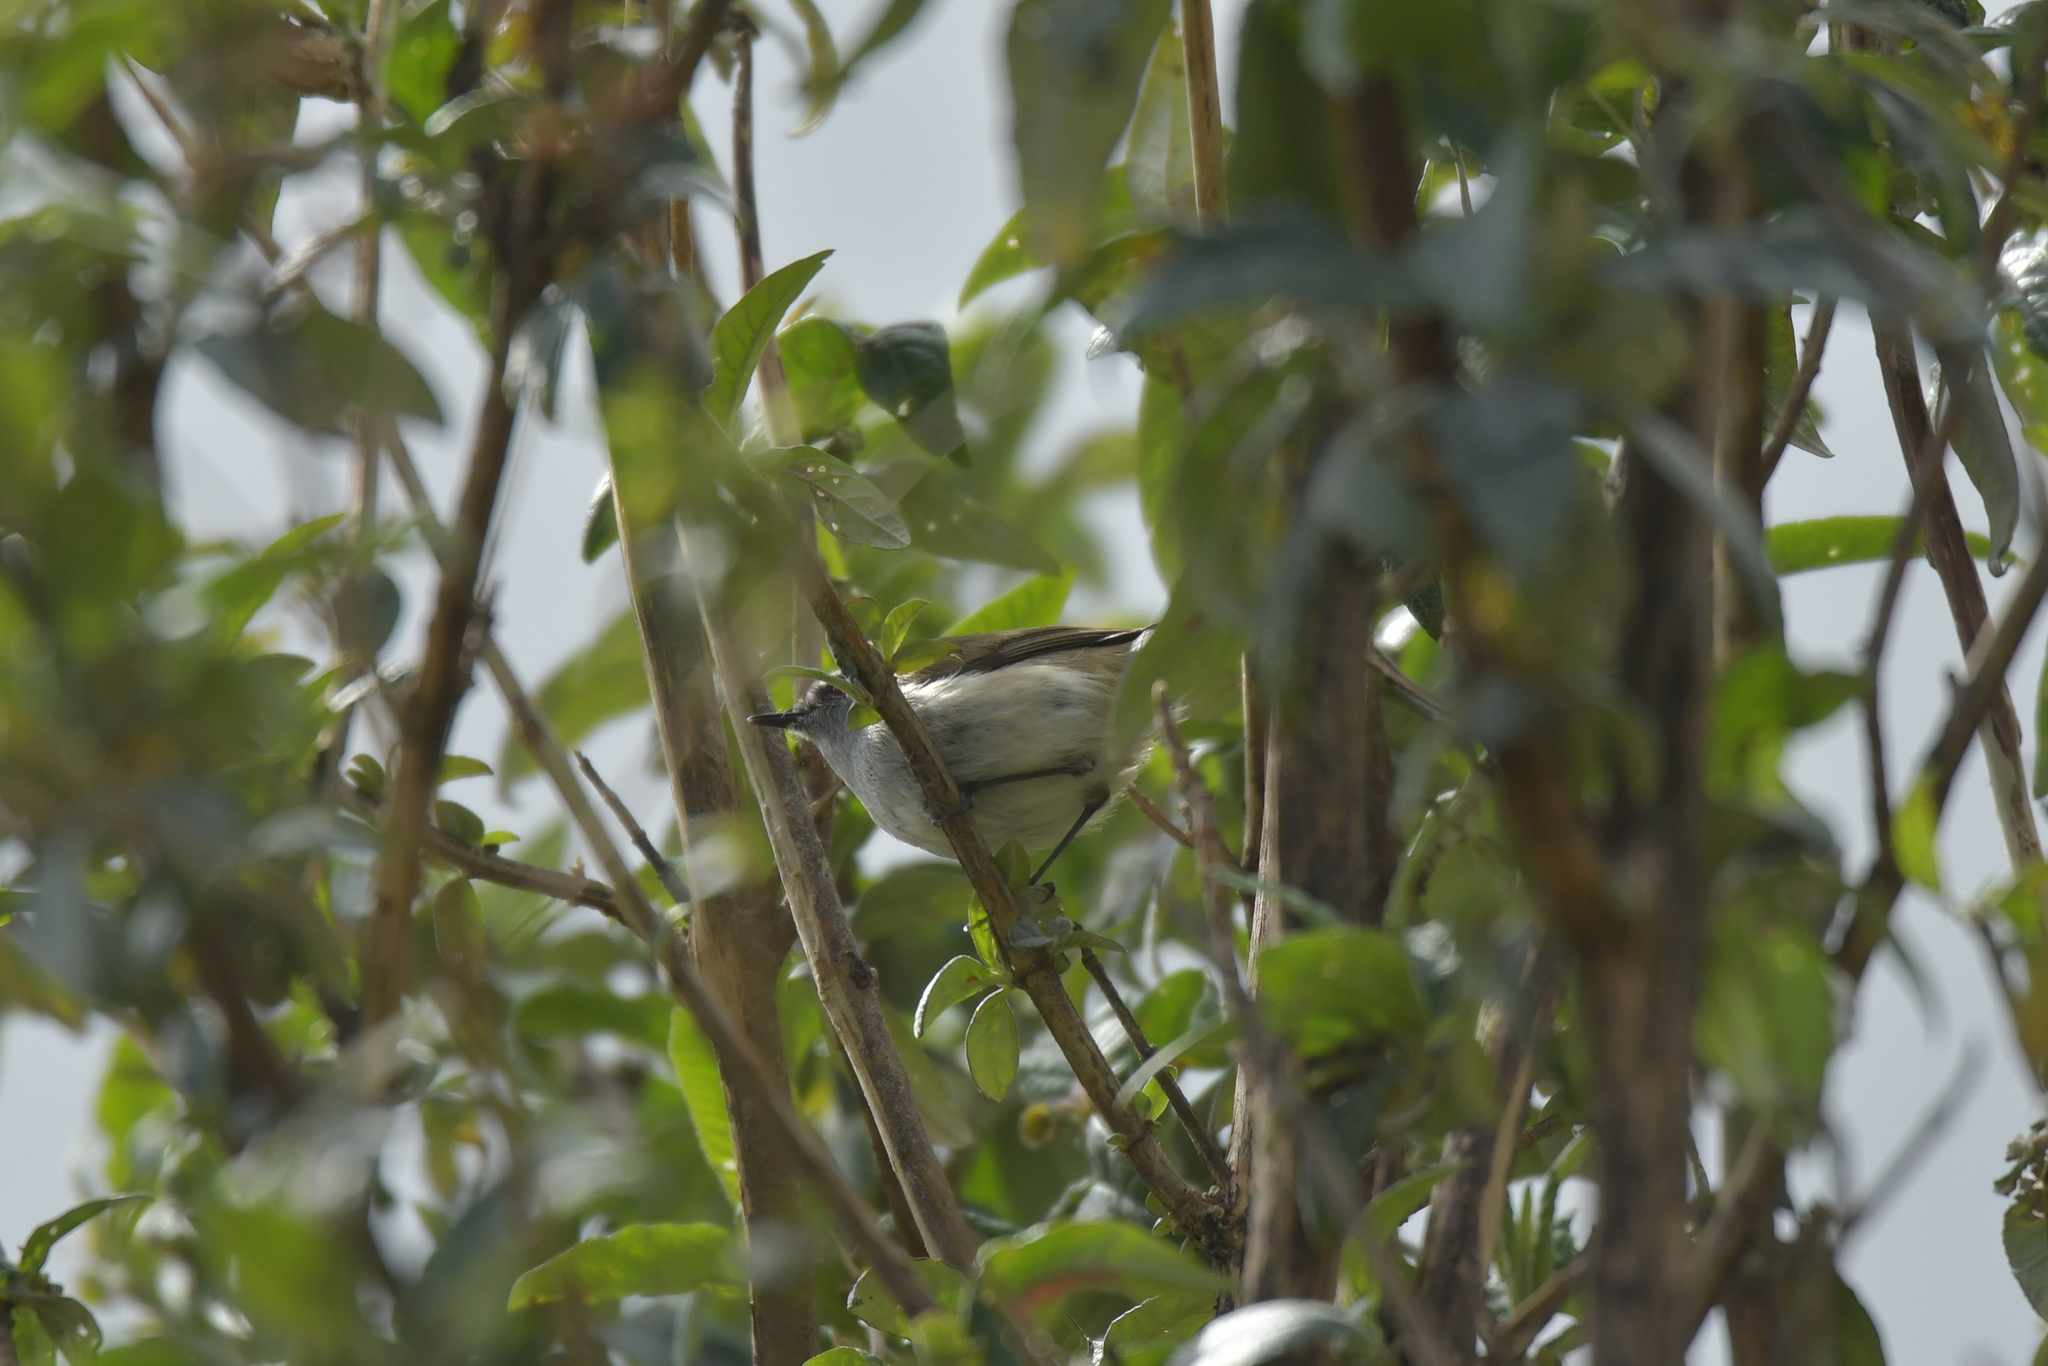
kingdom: Animalia
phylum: Chordata
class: Aves
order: Passeriformes
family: Acanthizidae
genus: Gerygone
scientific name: Gerygone igata
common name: Grey gerygone
